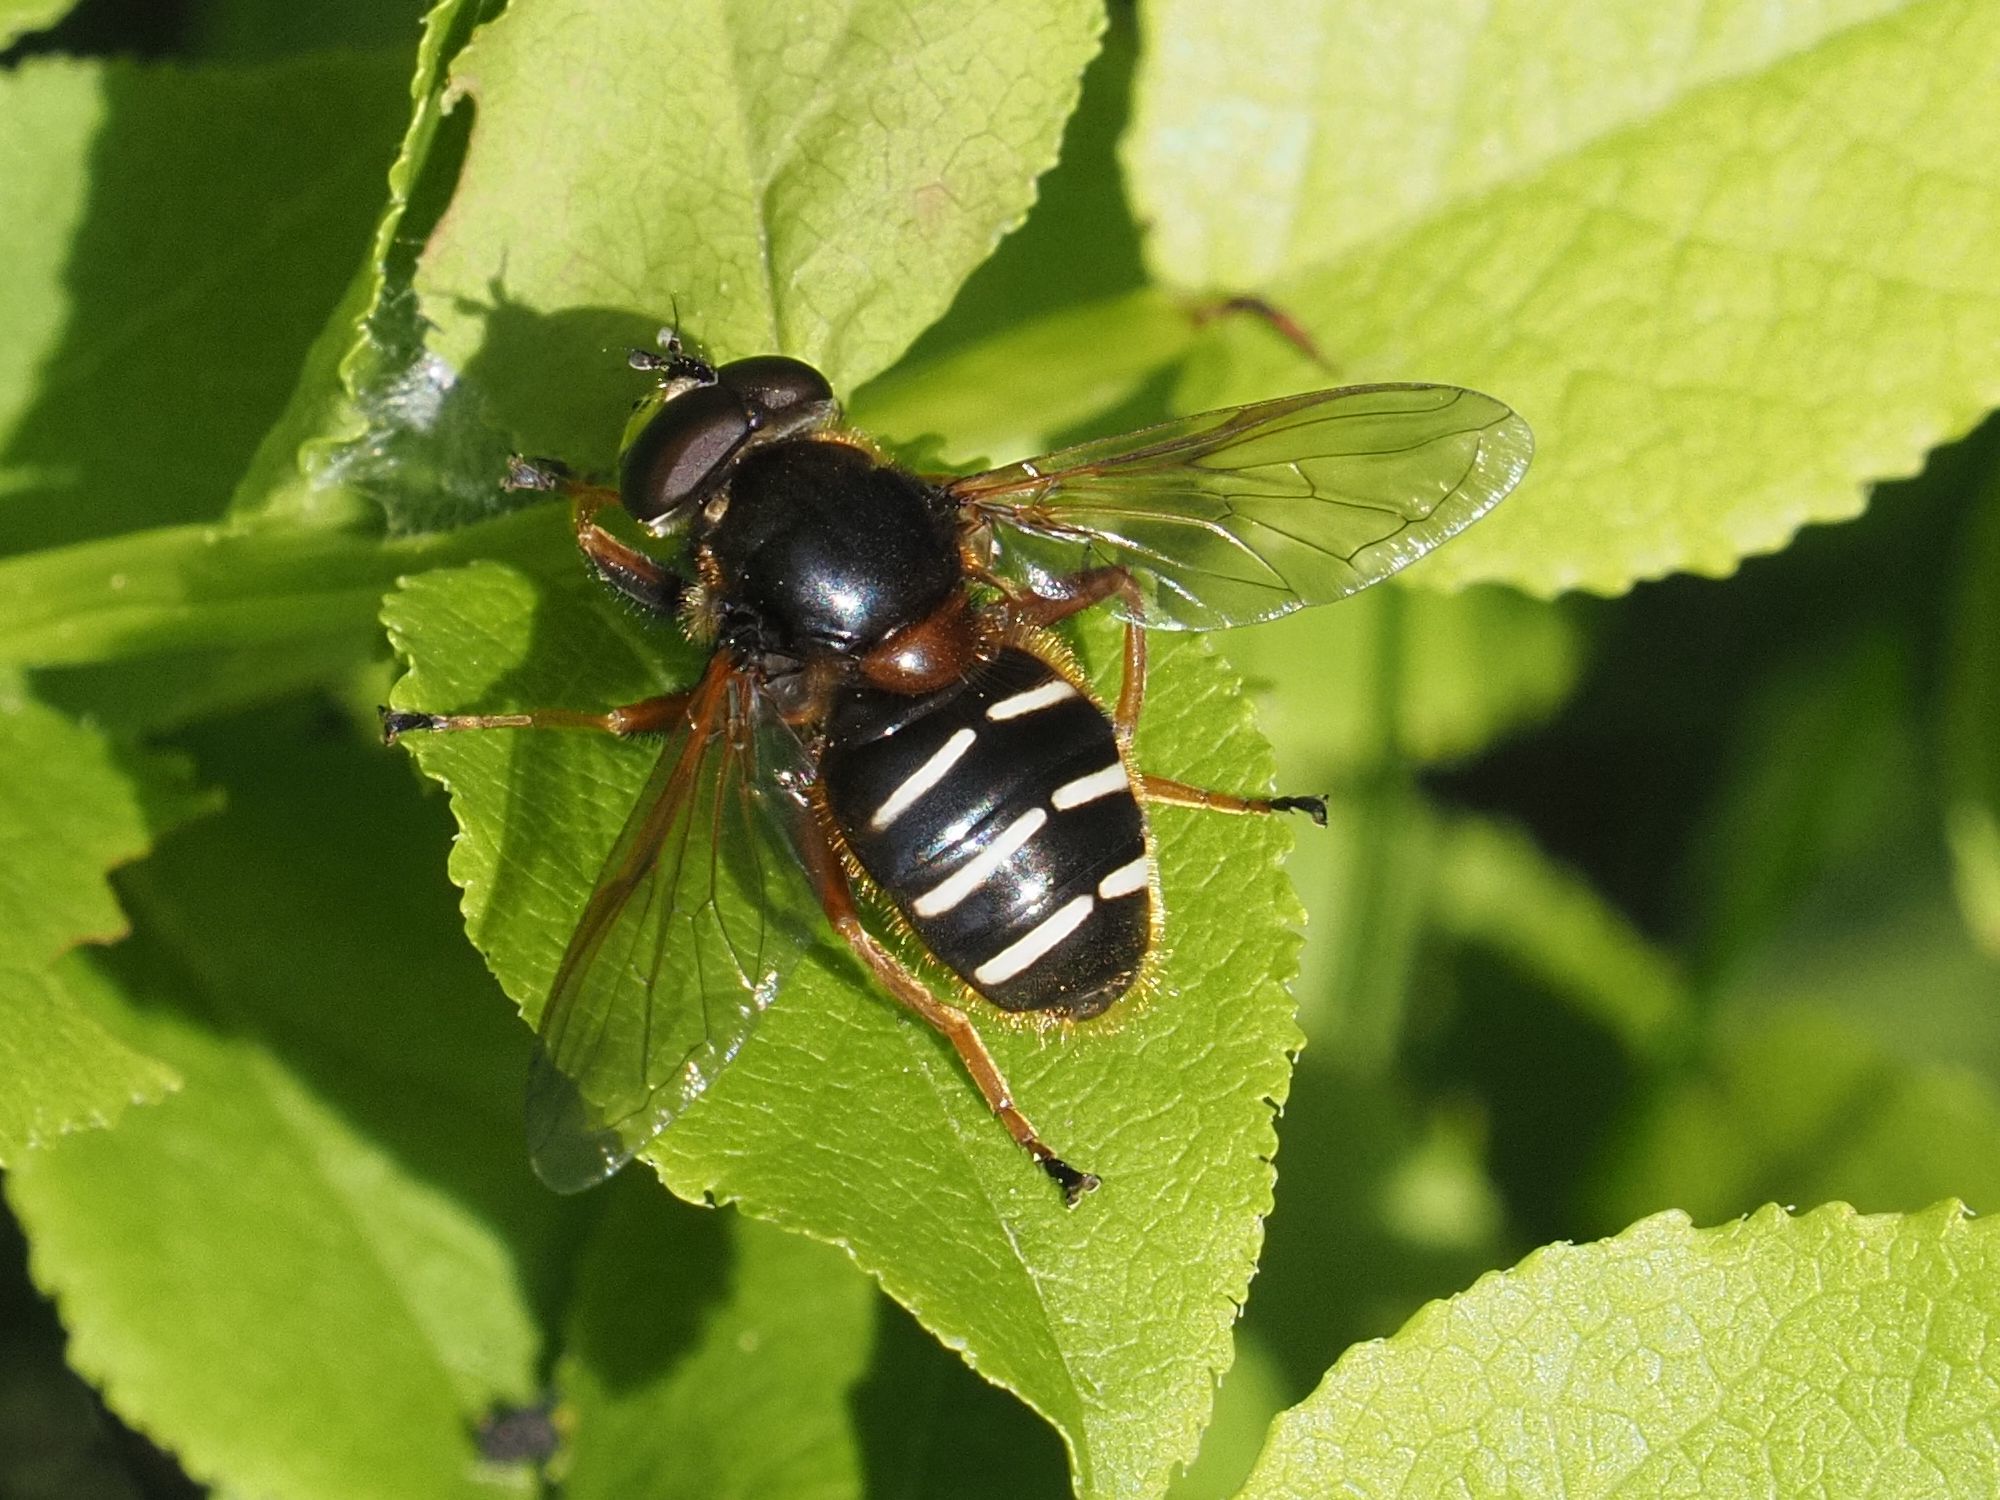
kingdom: Animalia
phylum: Arthropoda
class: Insecta
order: Diptera
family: Syrphidae
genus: Sericomyia
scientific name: Sericomyia lappona
